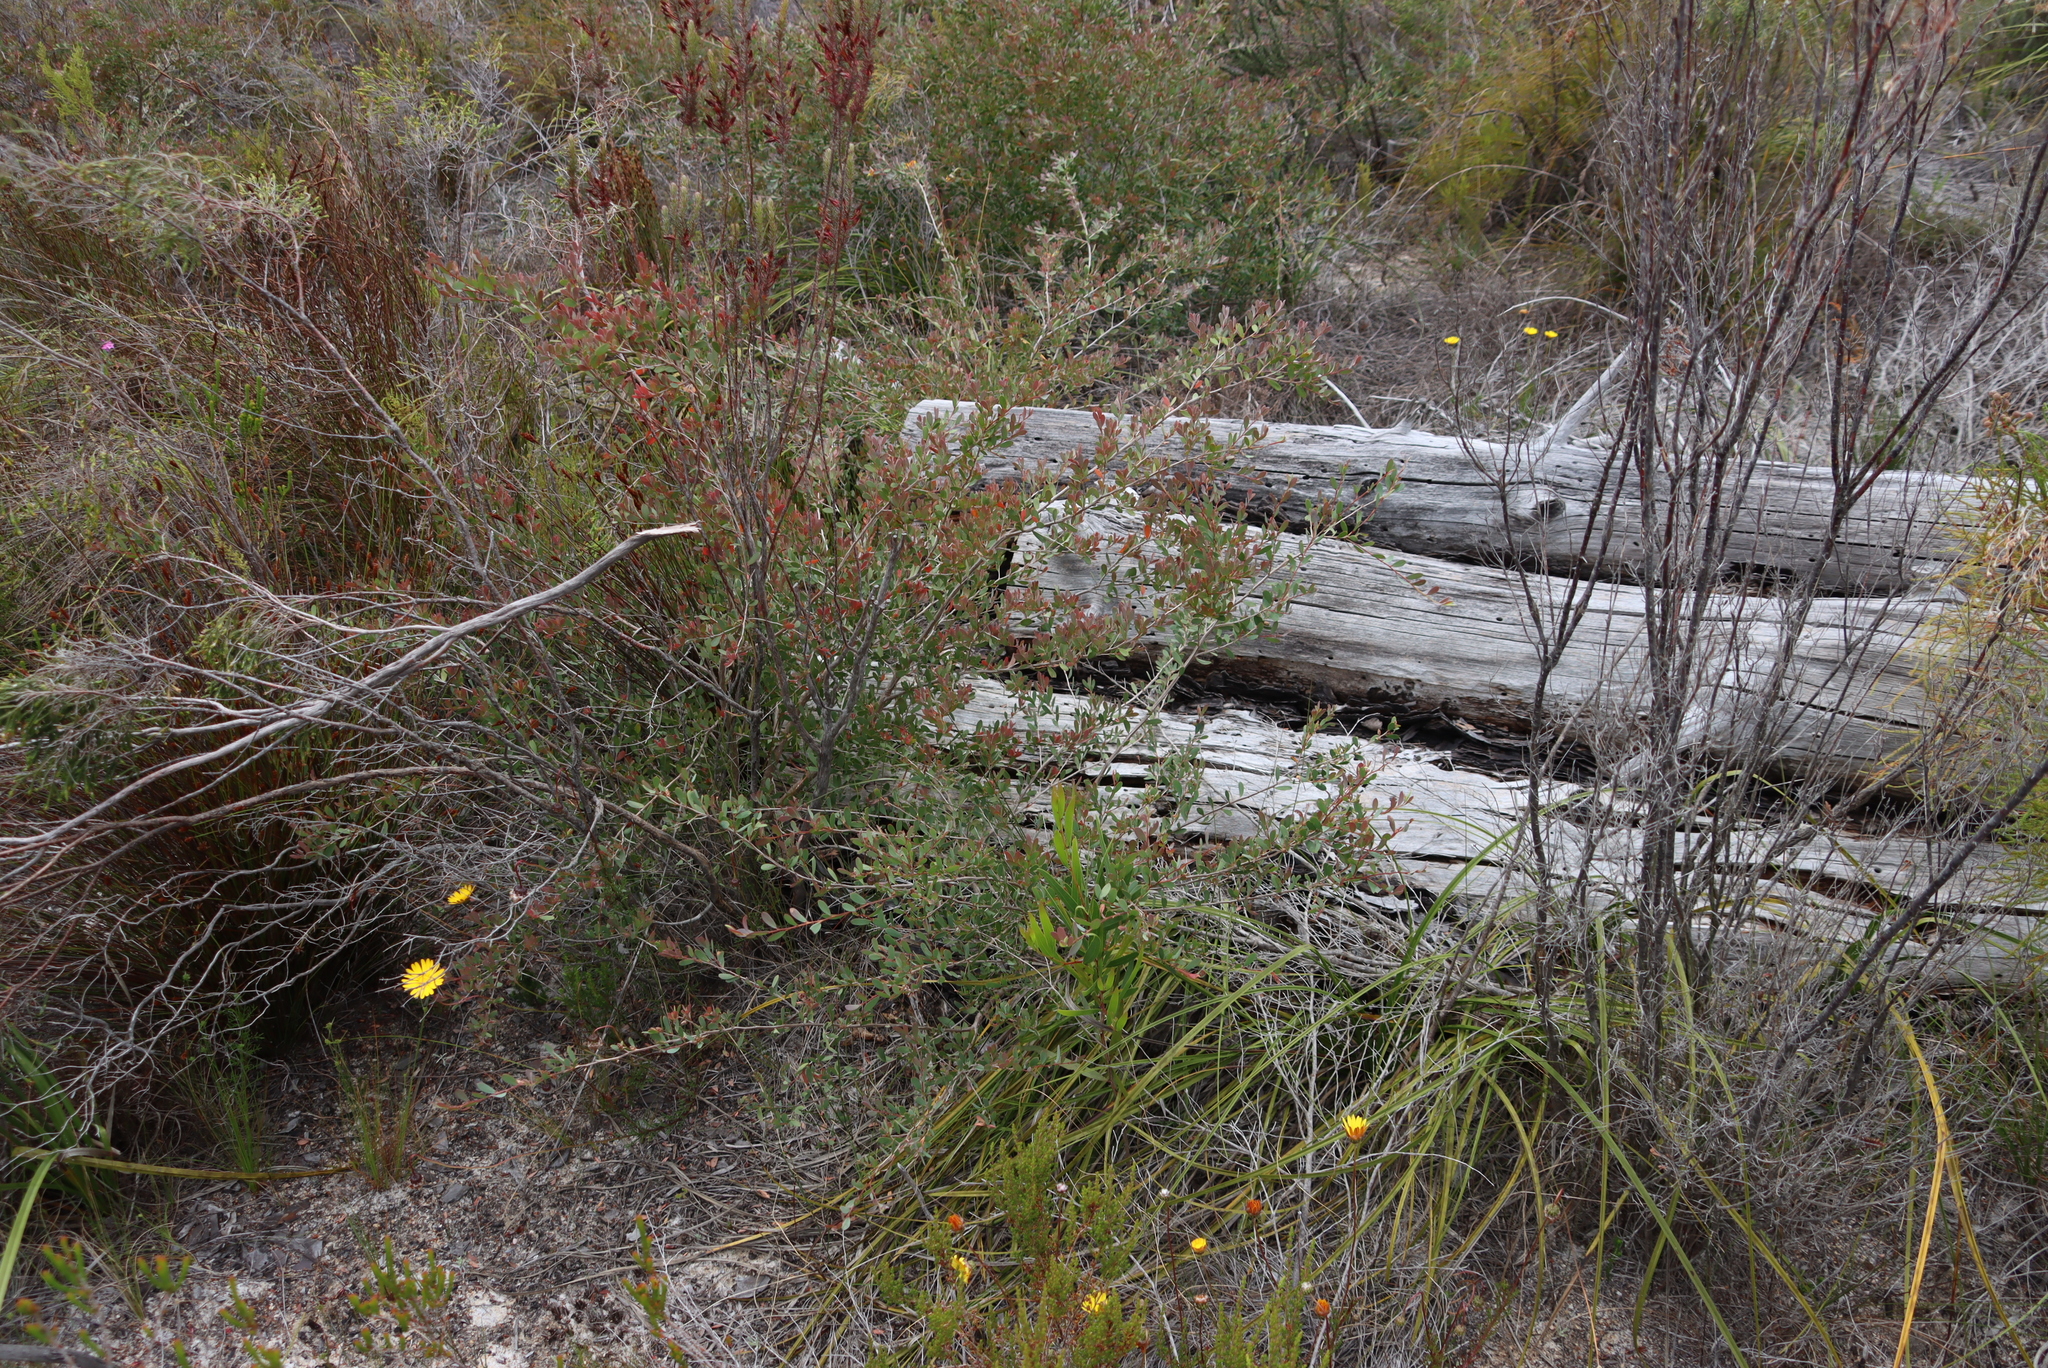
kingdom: Plantae
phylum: Tracheophyta
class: Magnoliopsida
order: Myrtales
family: Myrtaceae
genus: Leptospermum
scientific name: Leptospermum laevigatum
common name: Australian teatree
